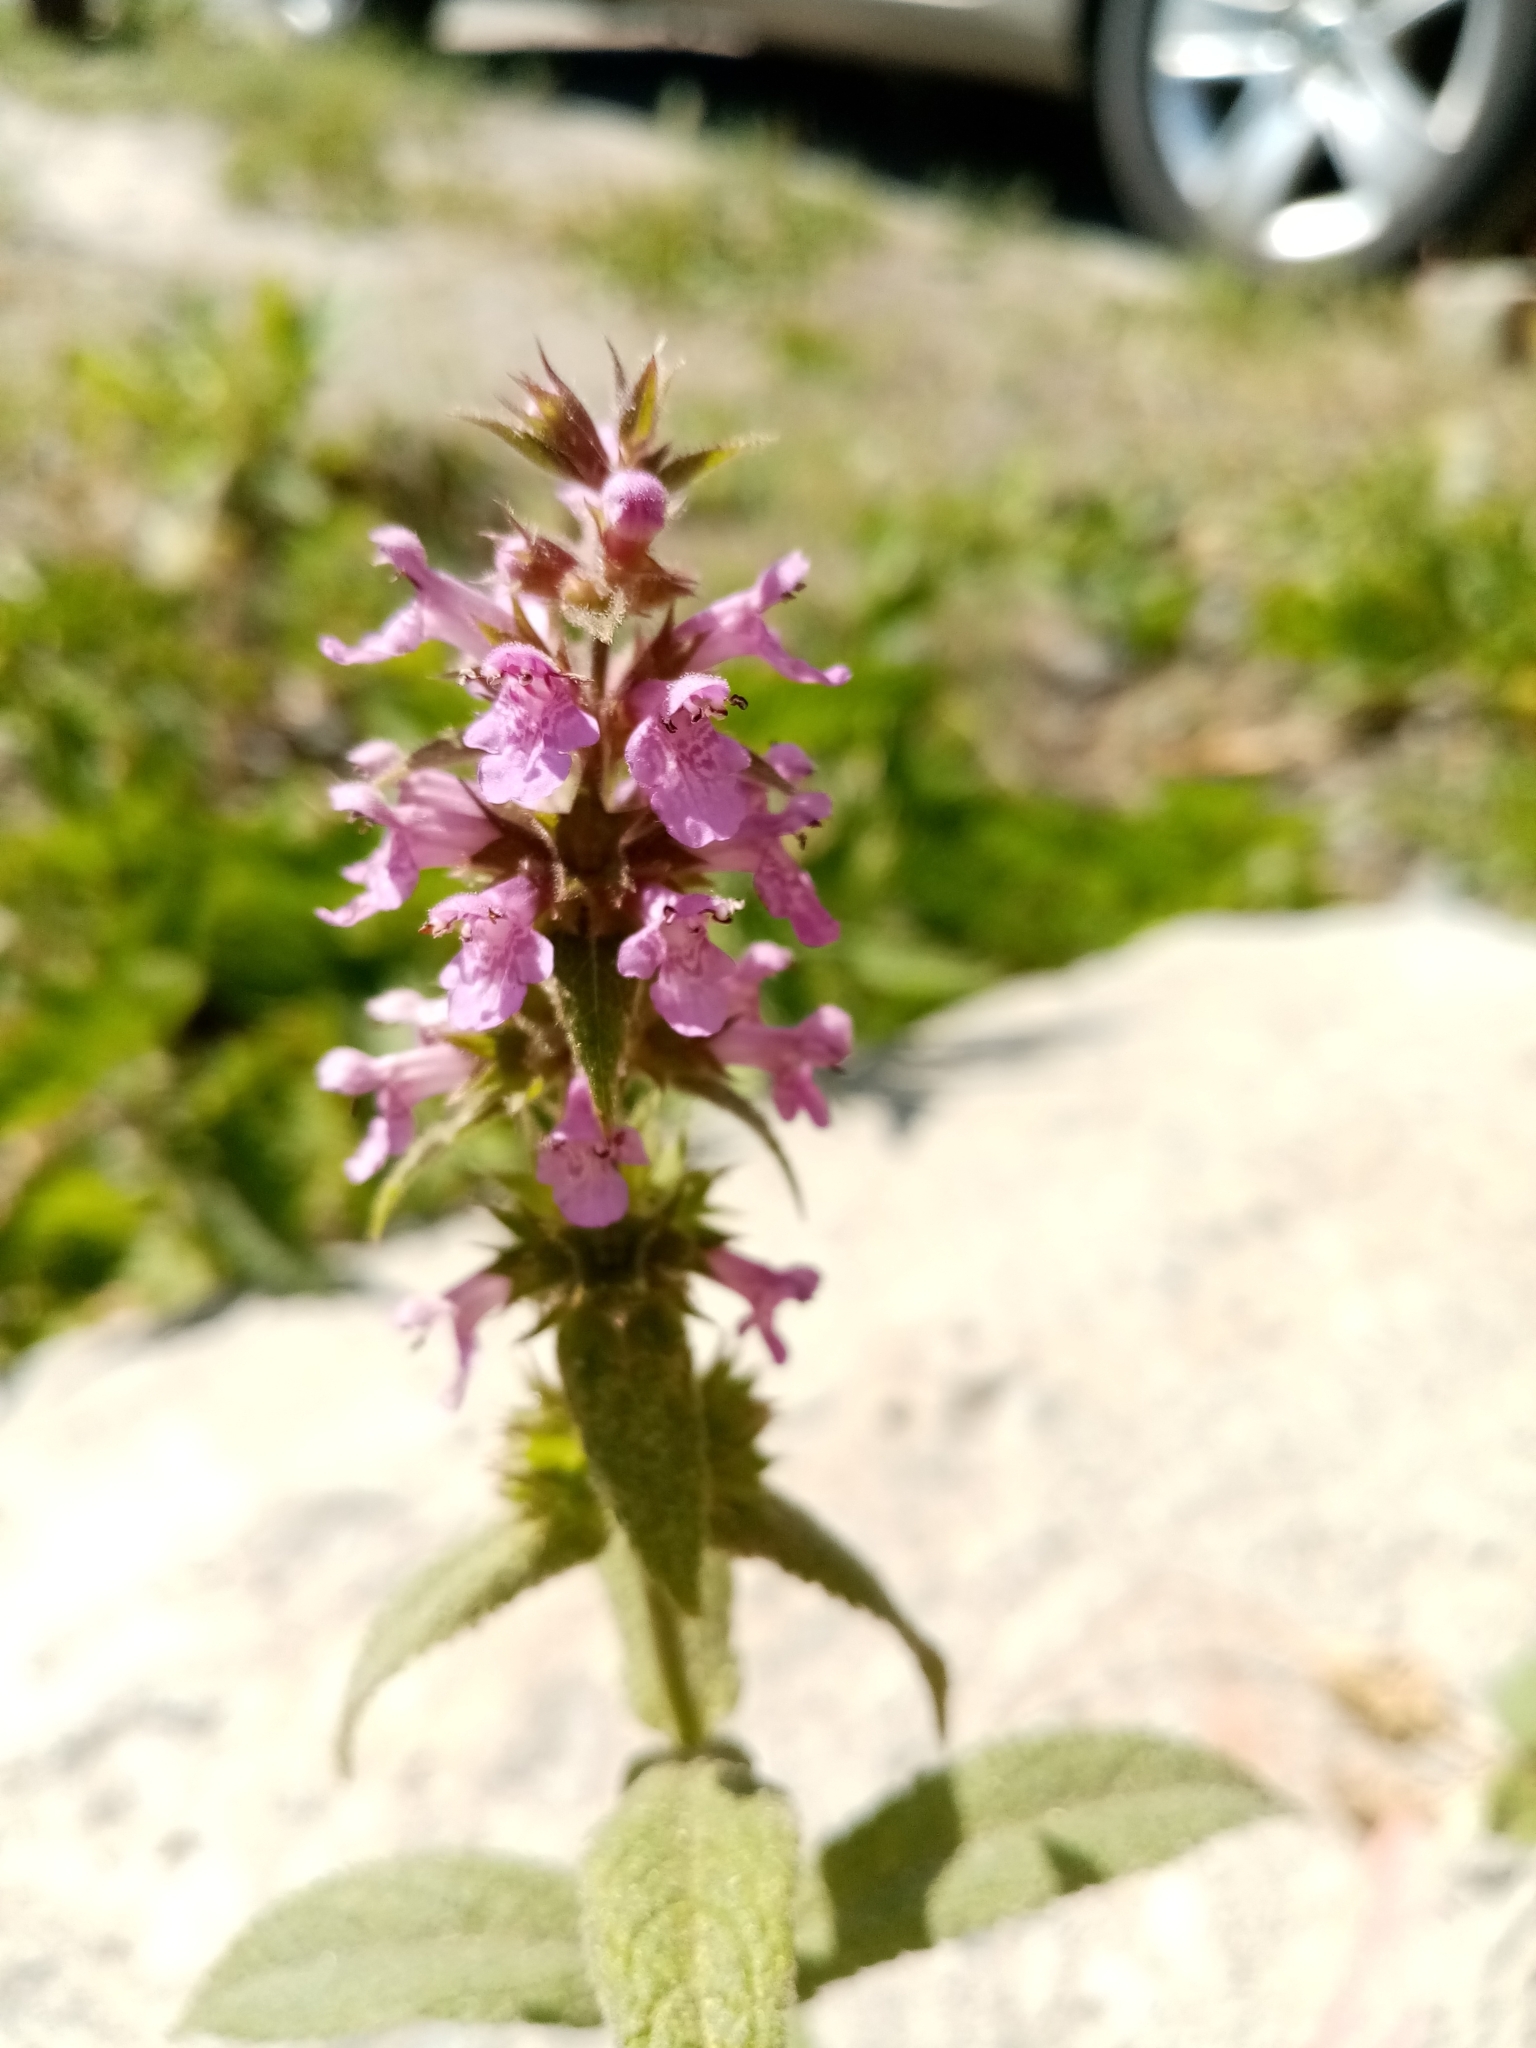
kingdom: Plantae
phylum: Tracheophyta
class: Magnoliopsida
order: Lamiales
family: Lamiaceae
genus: Stachys
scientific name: Stachys palustris
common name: Marsh woundwort
